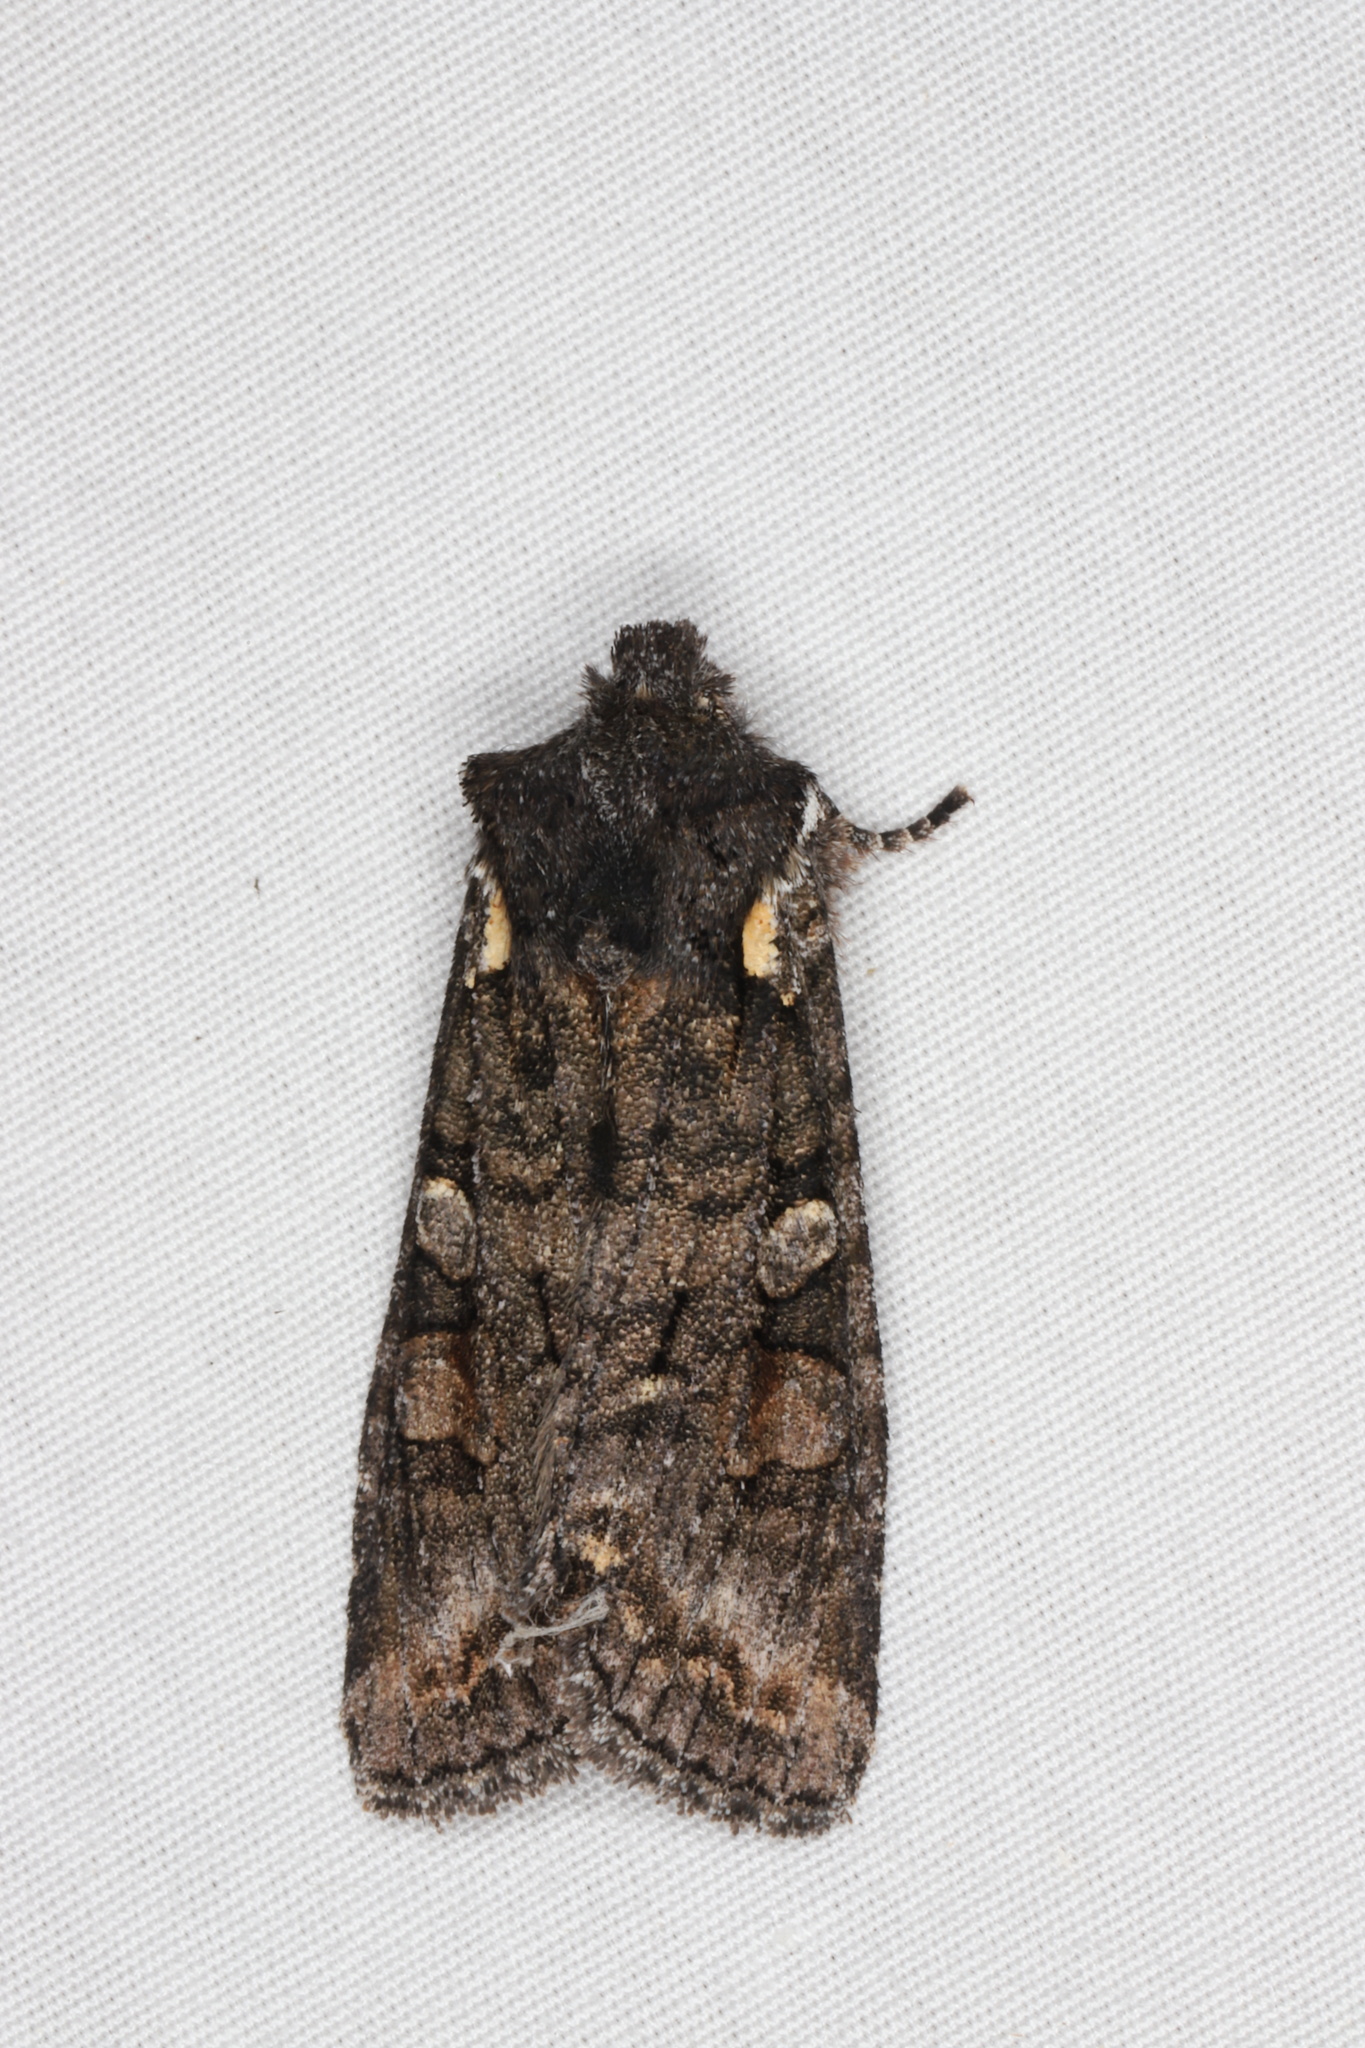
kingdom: Animalia
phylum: Arthropoda
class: Insecta
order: Lepidoptera
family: Noctuidae
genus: Lithophane
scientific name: Lithophane pexata
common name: Plush-naped pinion moth
